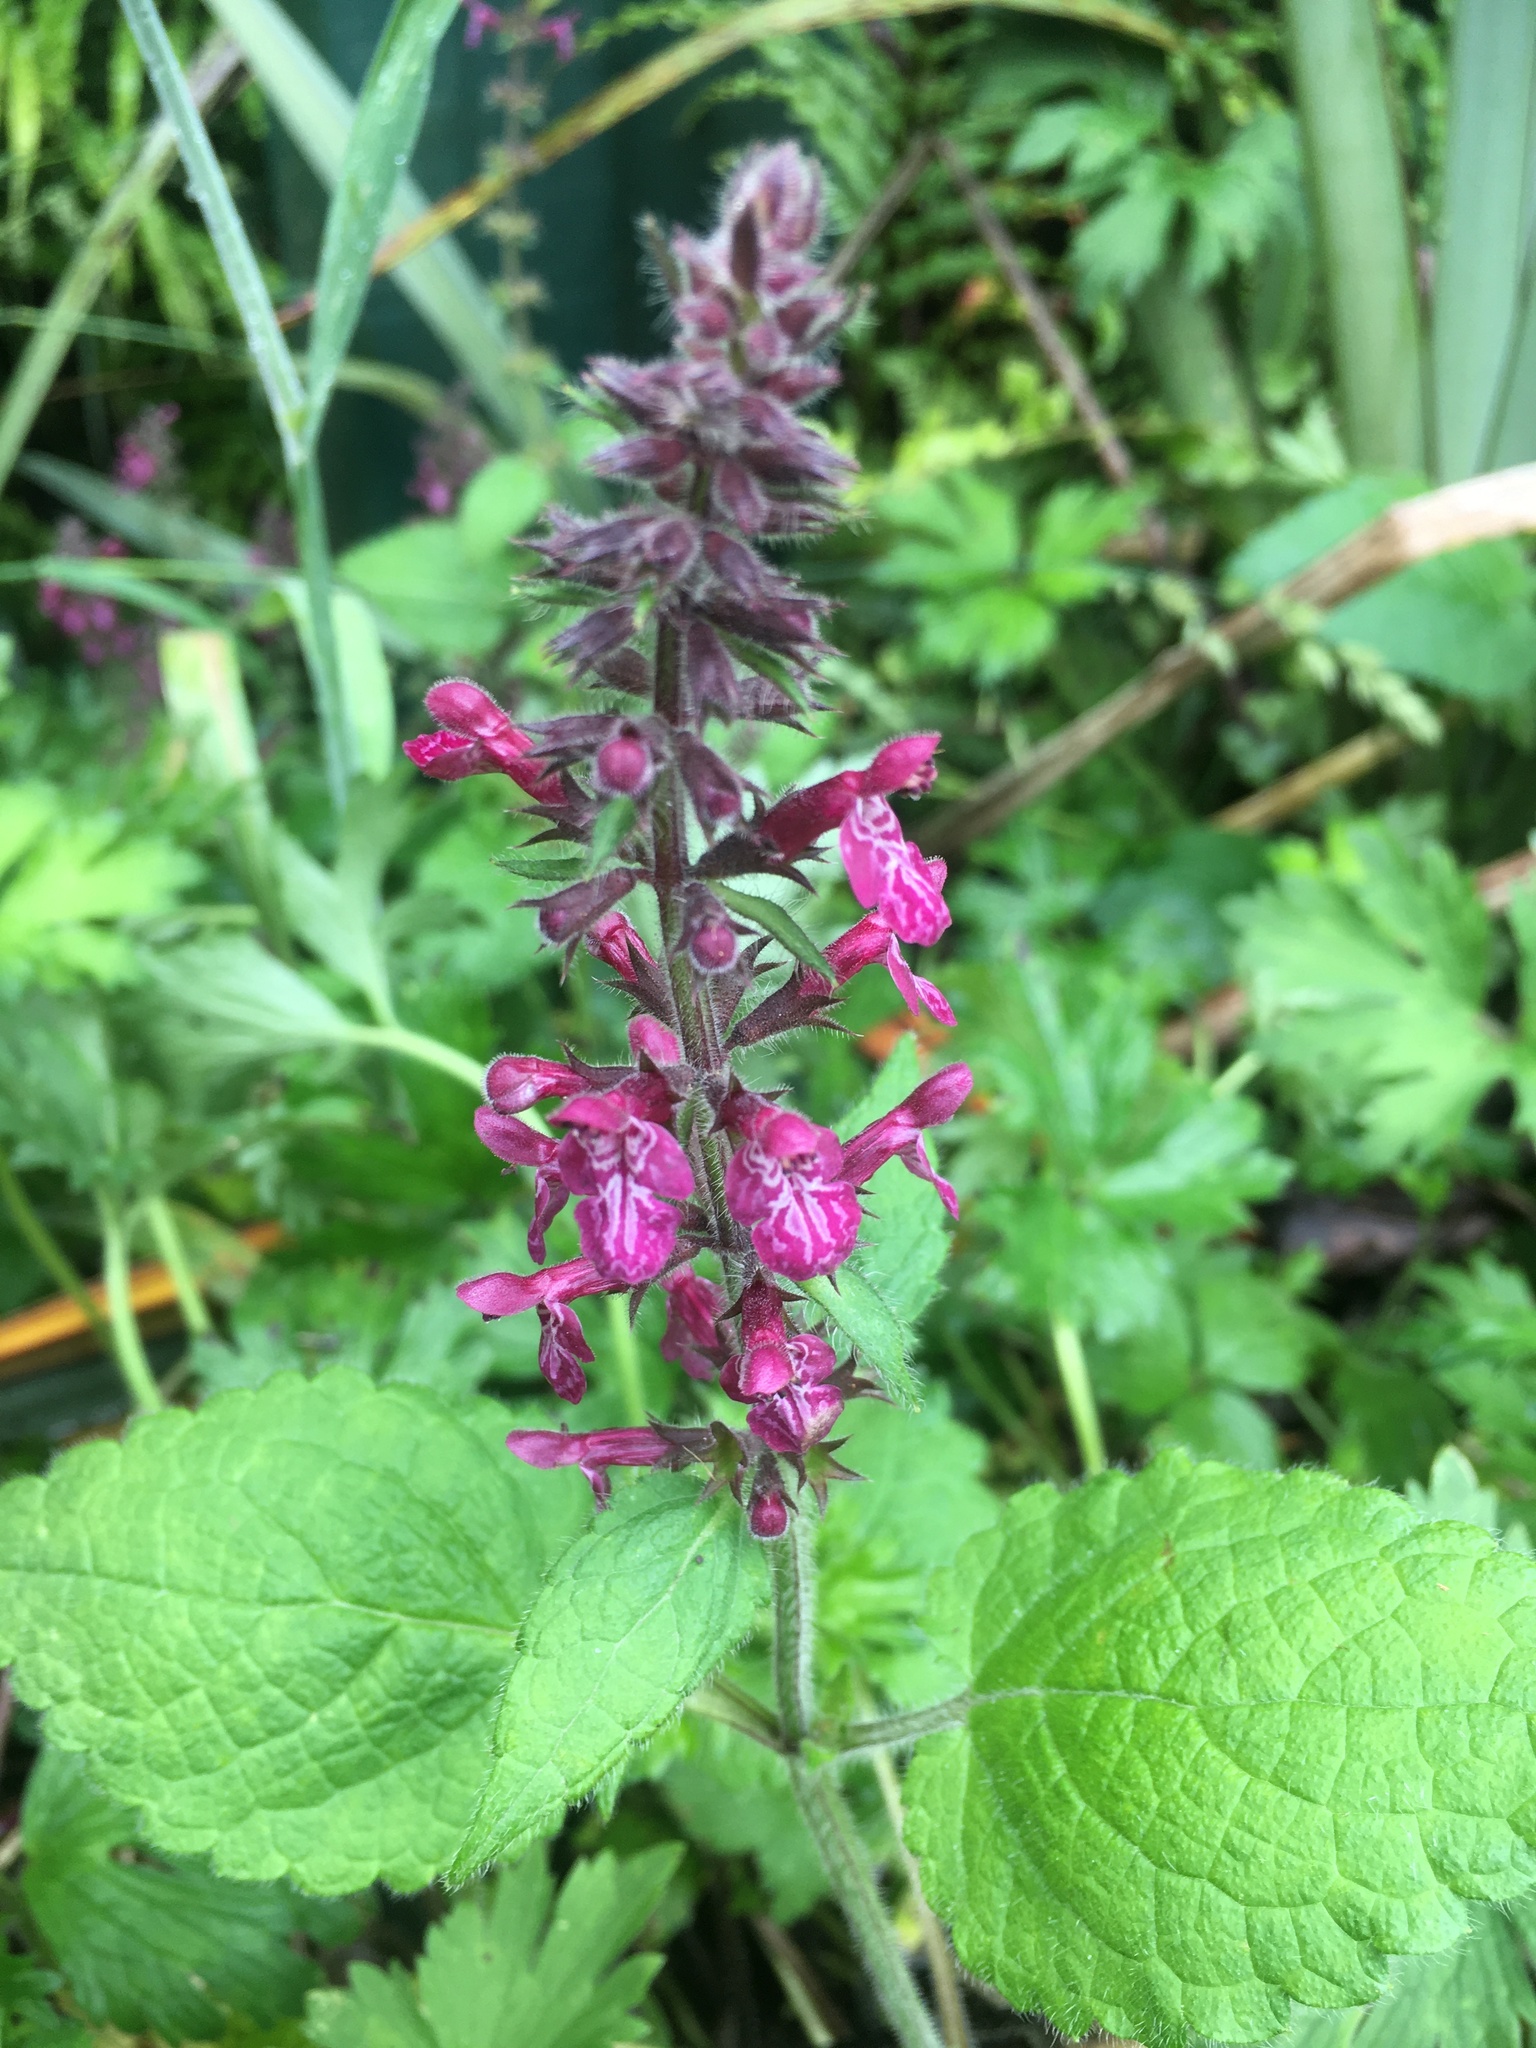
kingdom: Plantae
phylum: Tracheophyta
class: Magnoliopsida
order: Lamiales
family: Lamiaceae
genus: Stachys
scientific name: Stachys sylvatica
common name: Hedge woundwort
